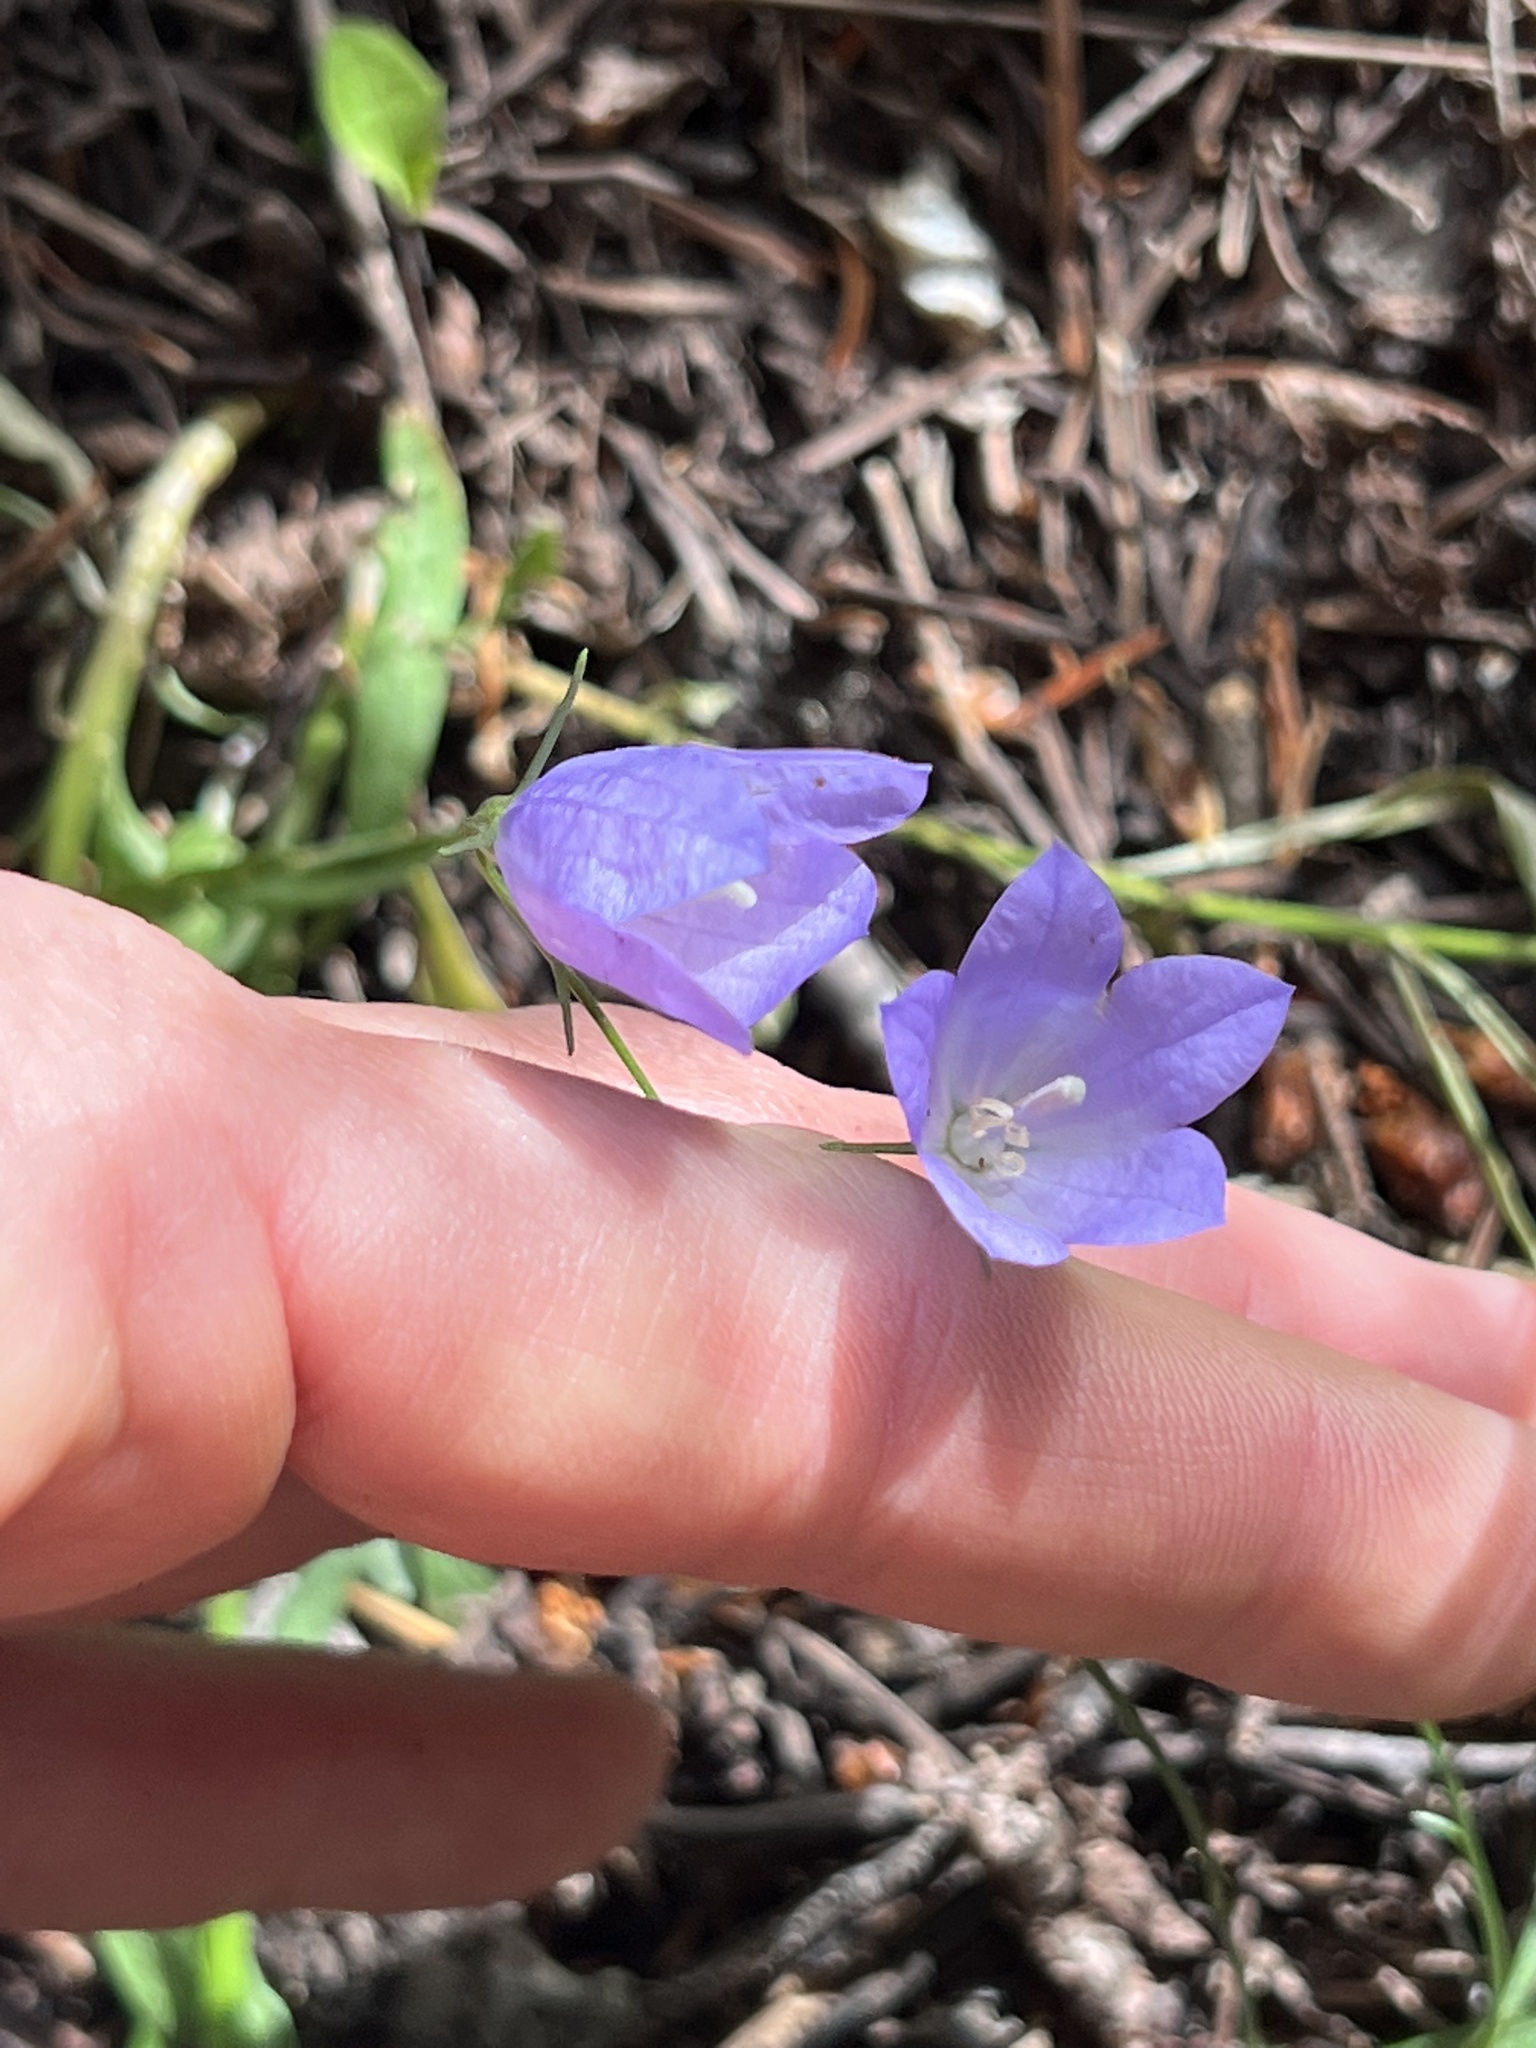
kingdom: Plantae
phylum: Tracheophyta
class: Magnoliopsida
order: Asterales
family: Campanulaceae
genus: Campanula
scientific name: Campanula
